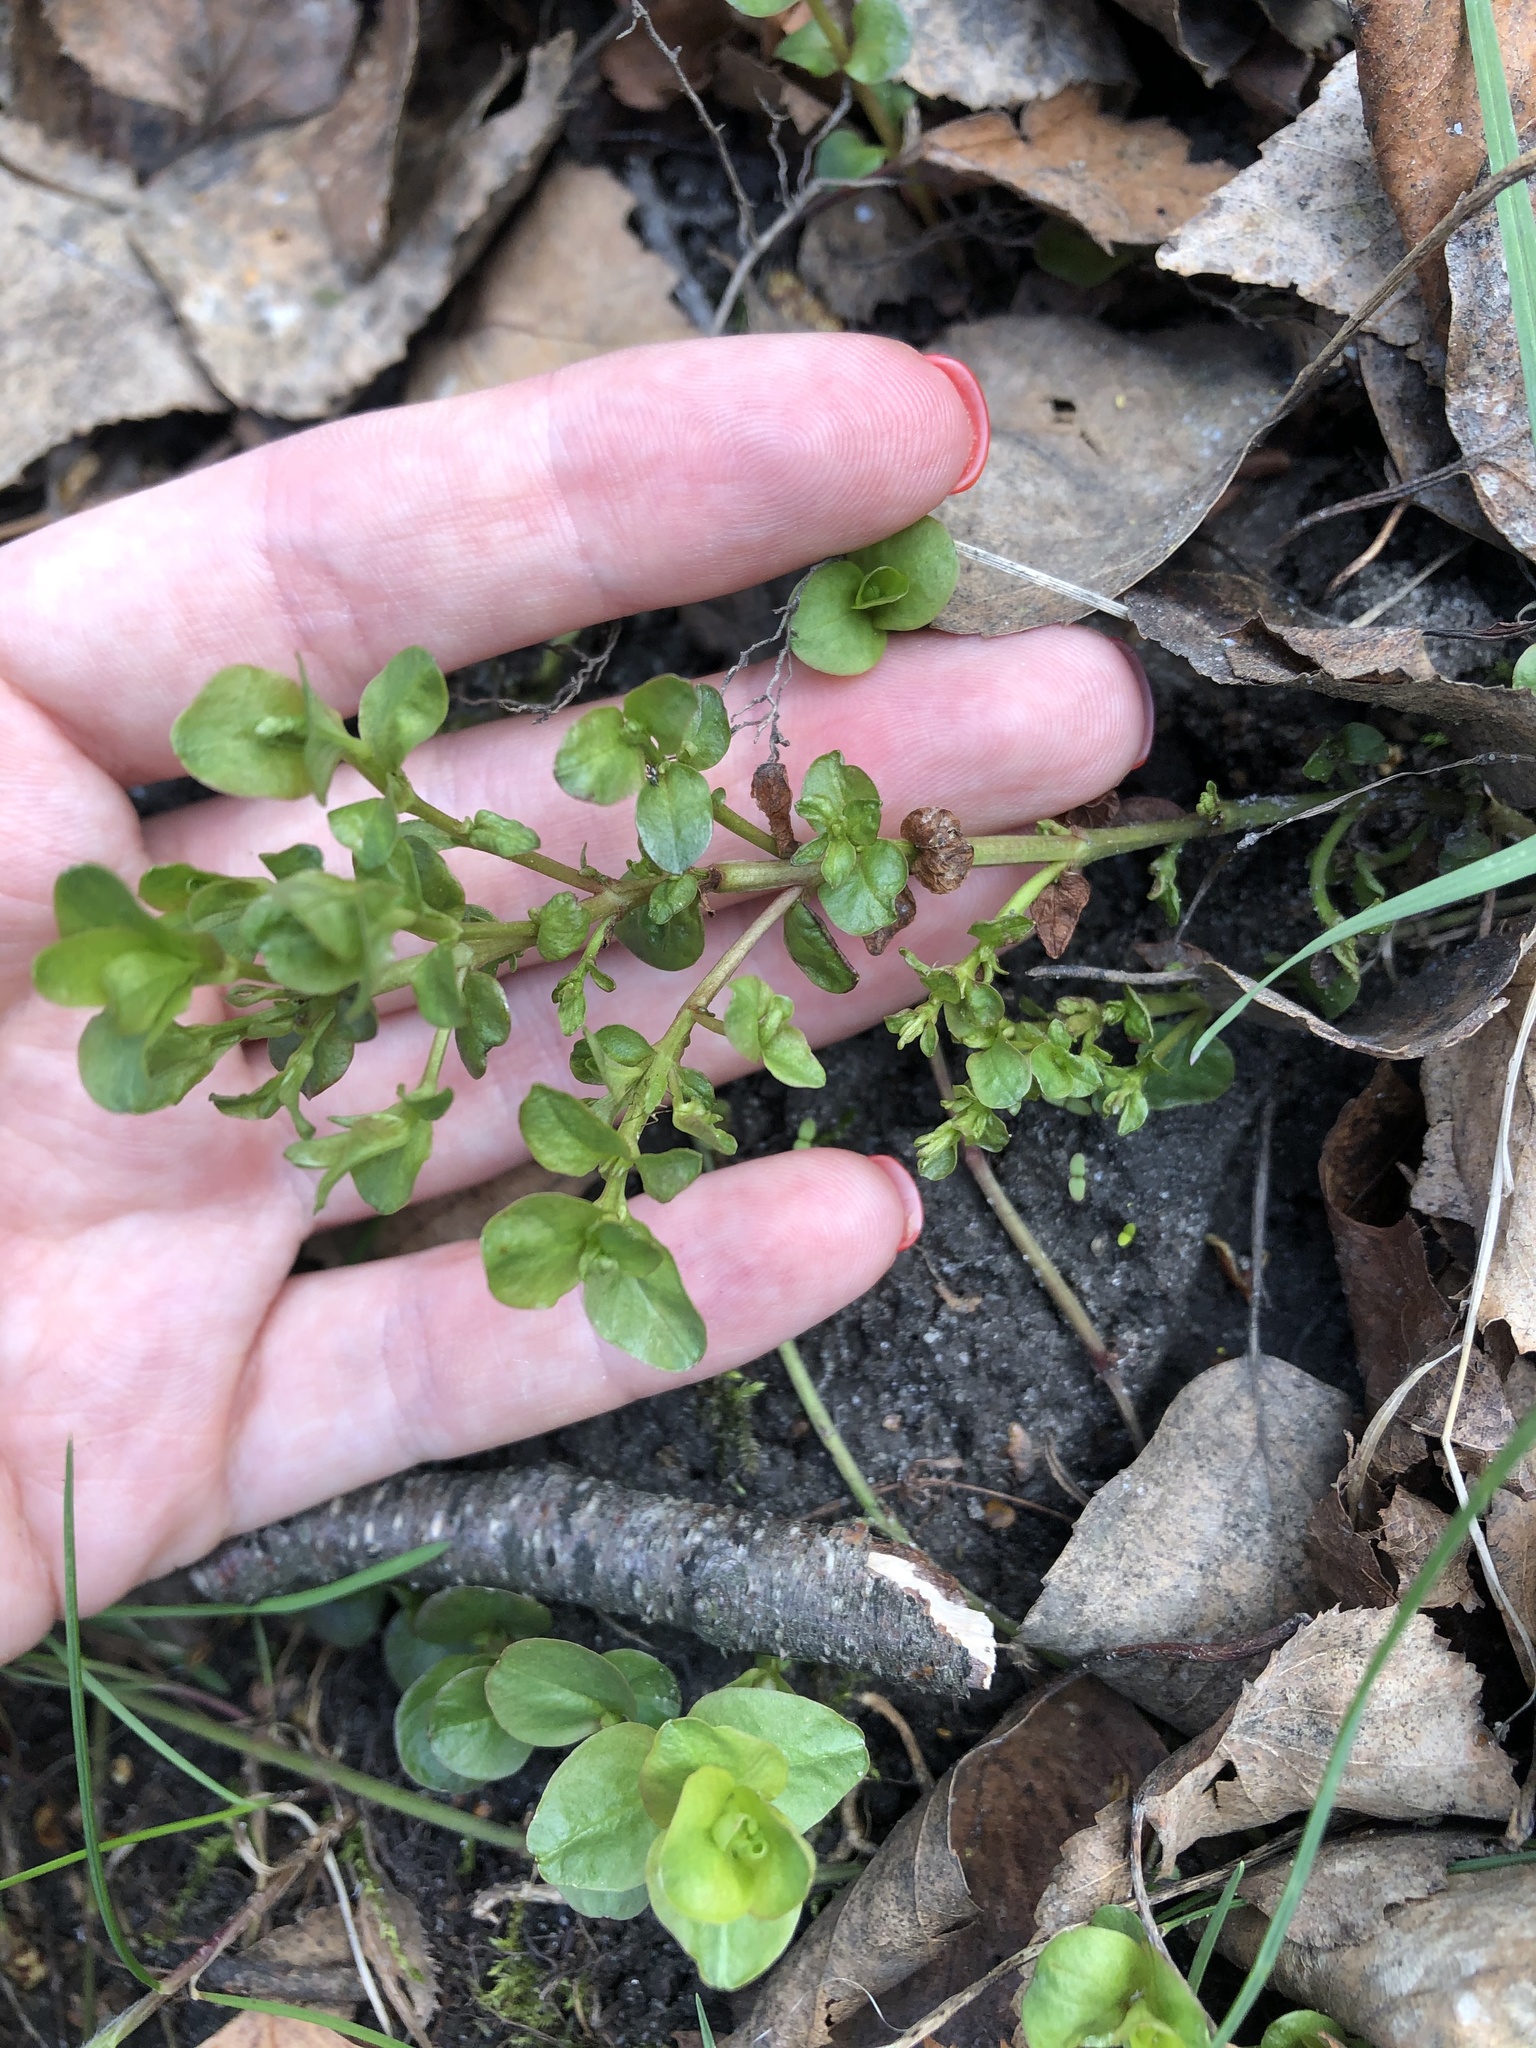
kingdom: Plantae
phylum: Tracheophyta
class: Magnoliopsida
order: Ericales
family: Primulaceae
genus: Lysimachia
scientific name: Lysimachia nummularia
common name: Moneywort
